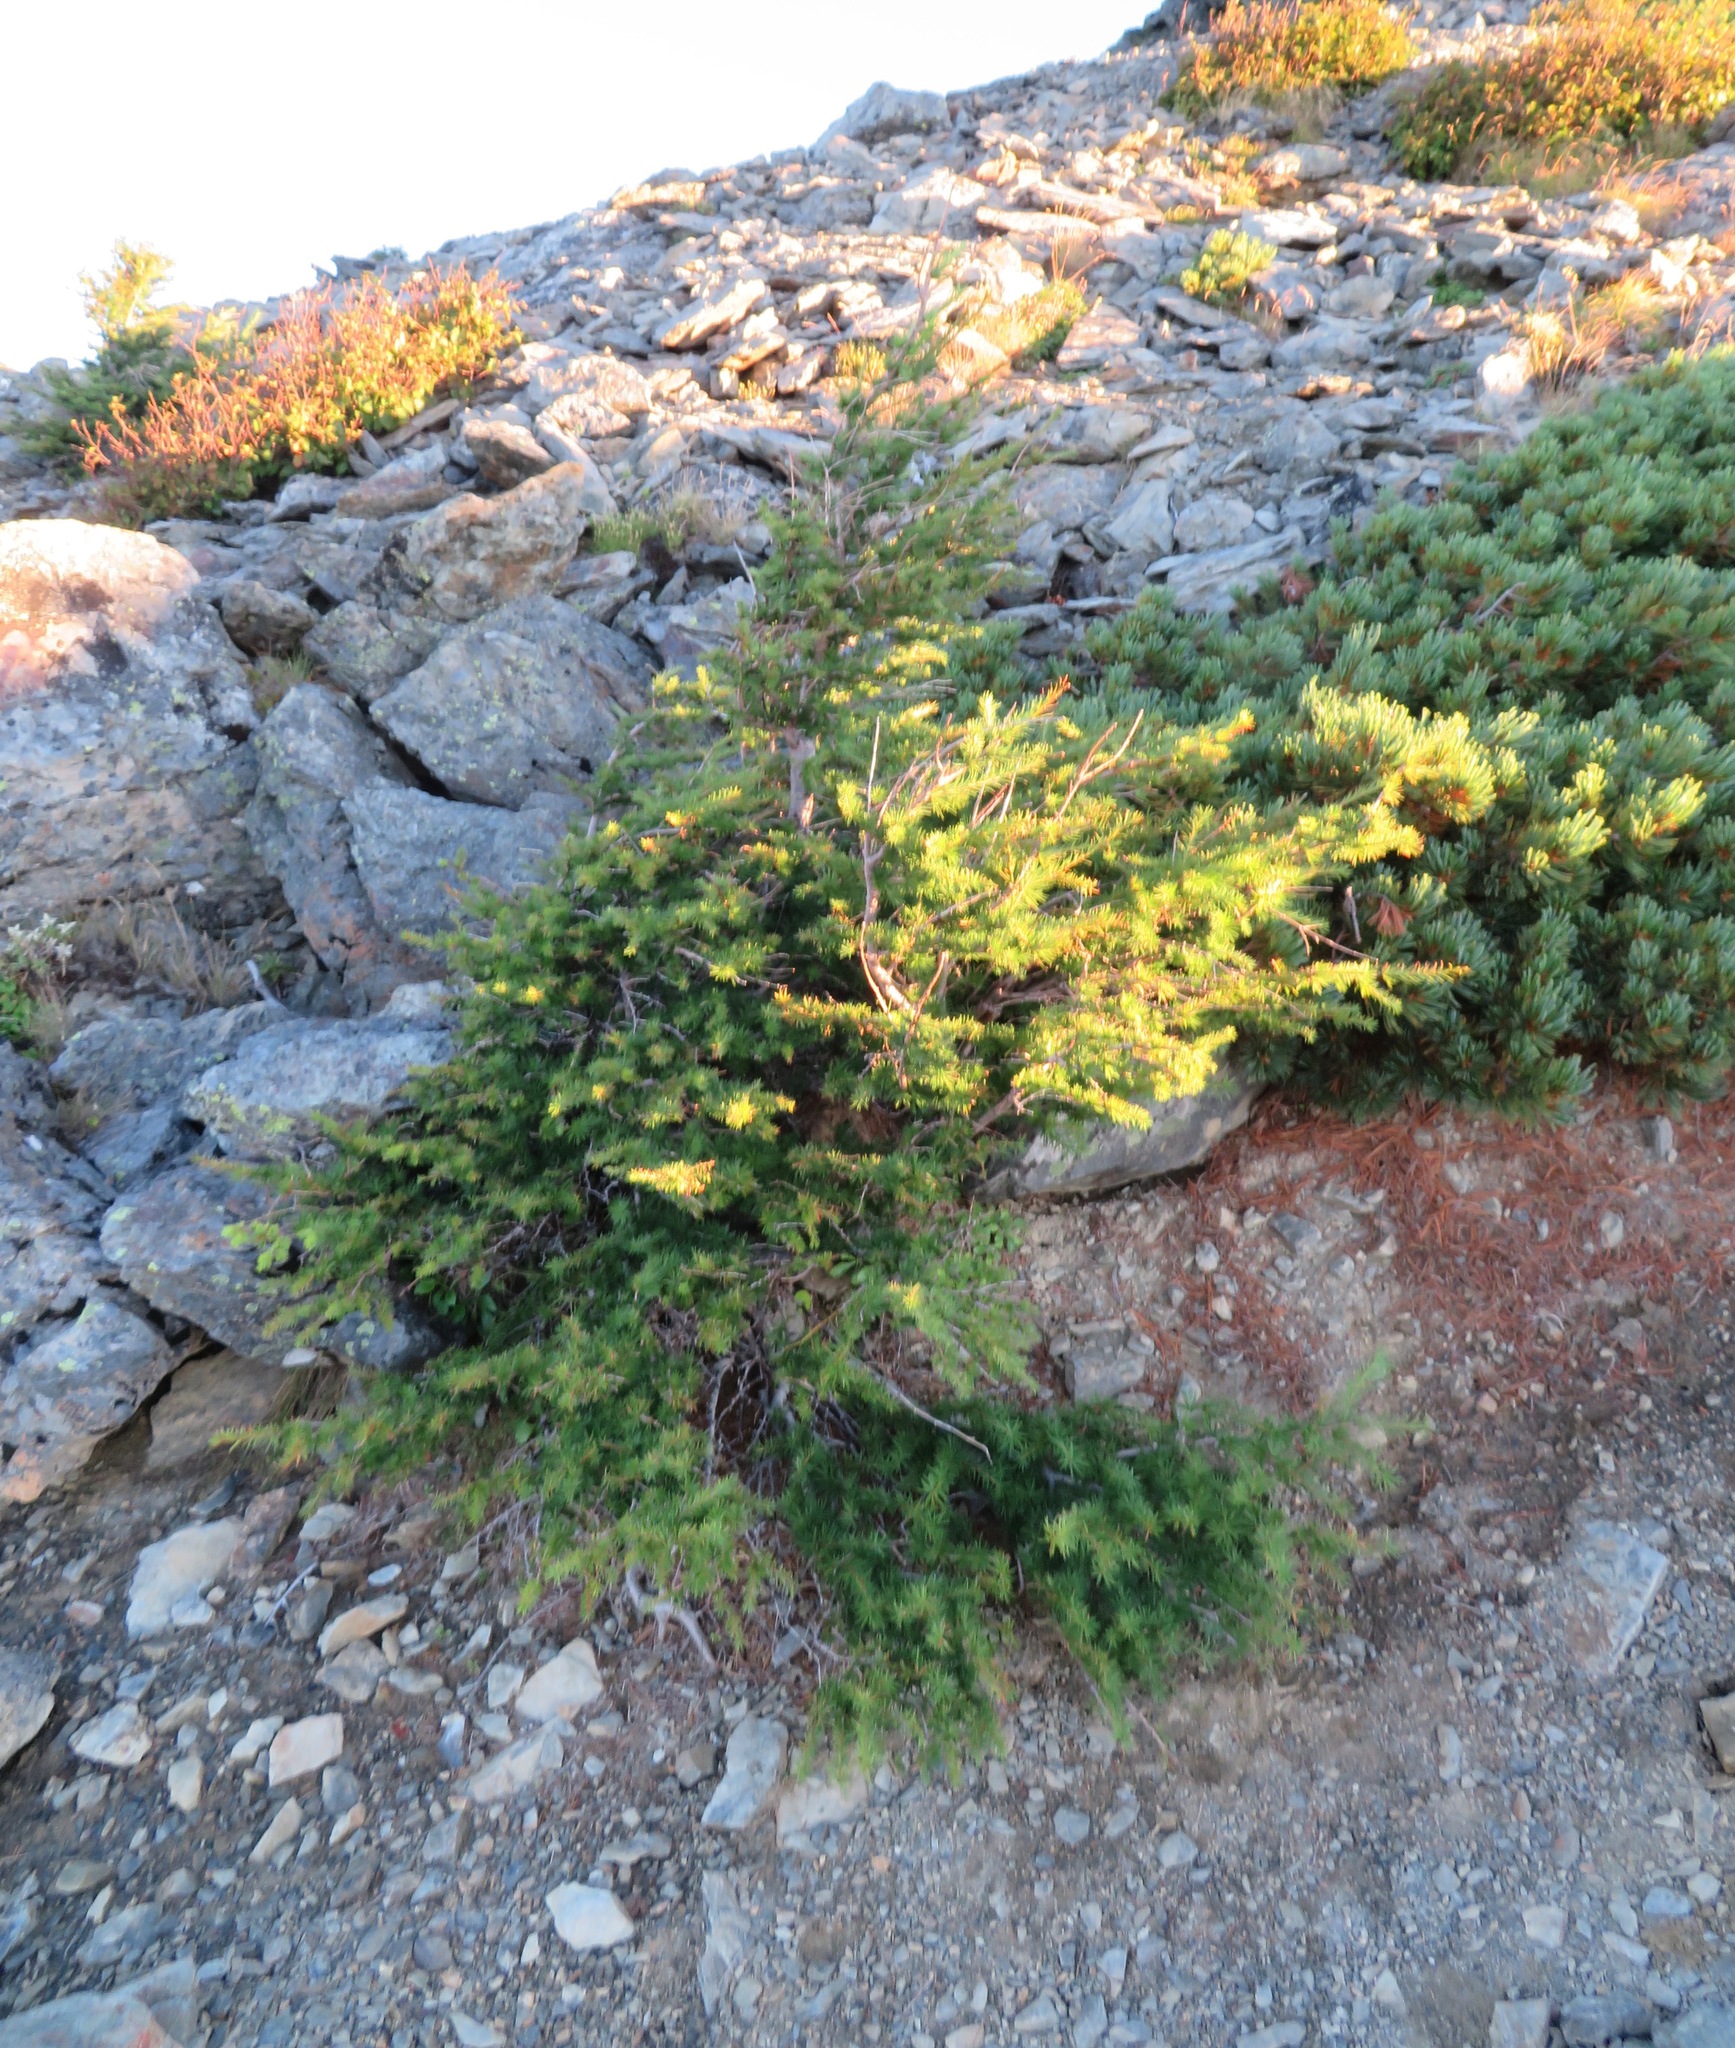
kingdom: Plantae
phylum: Tracheophyta
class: Pinopsida
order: Pinales
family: Pinaceae
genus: Larix
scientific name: Larix kaempferi
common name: Japanese larch
